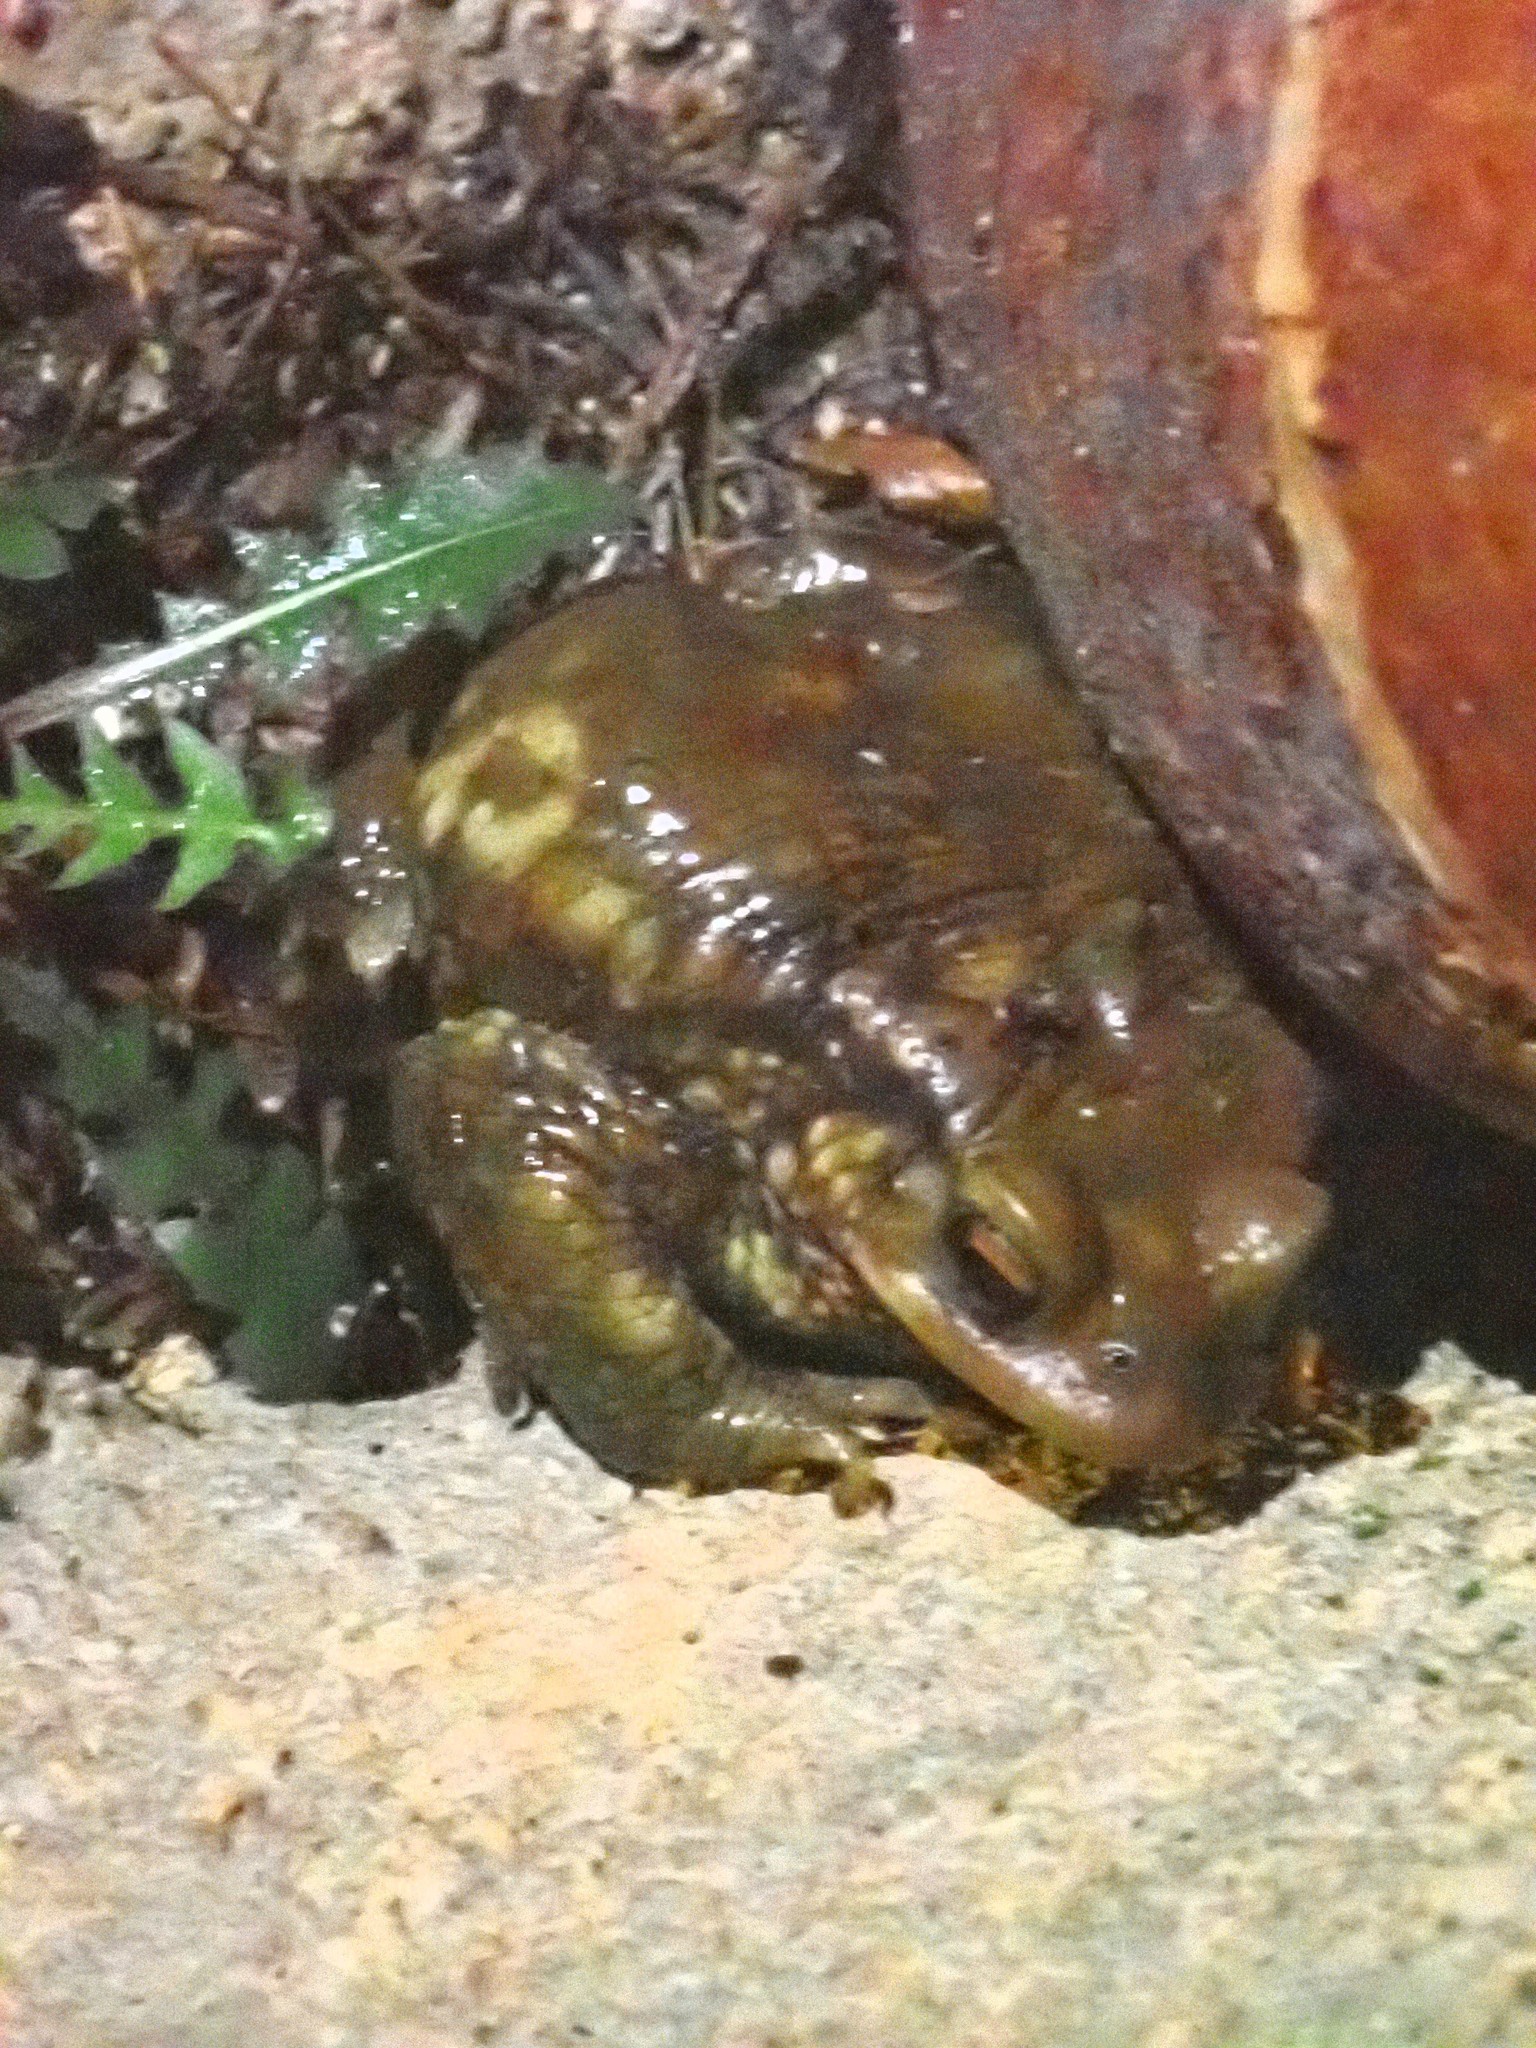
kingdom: Animalia
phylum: Chordata
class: Amphibia
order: Anura
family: Bufonidae
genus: Bufo
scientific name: Bufo spinosus
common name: Western common toad
